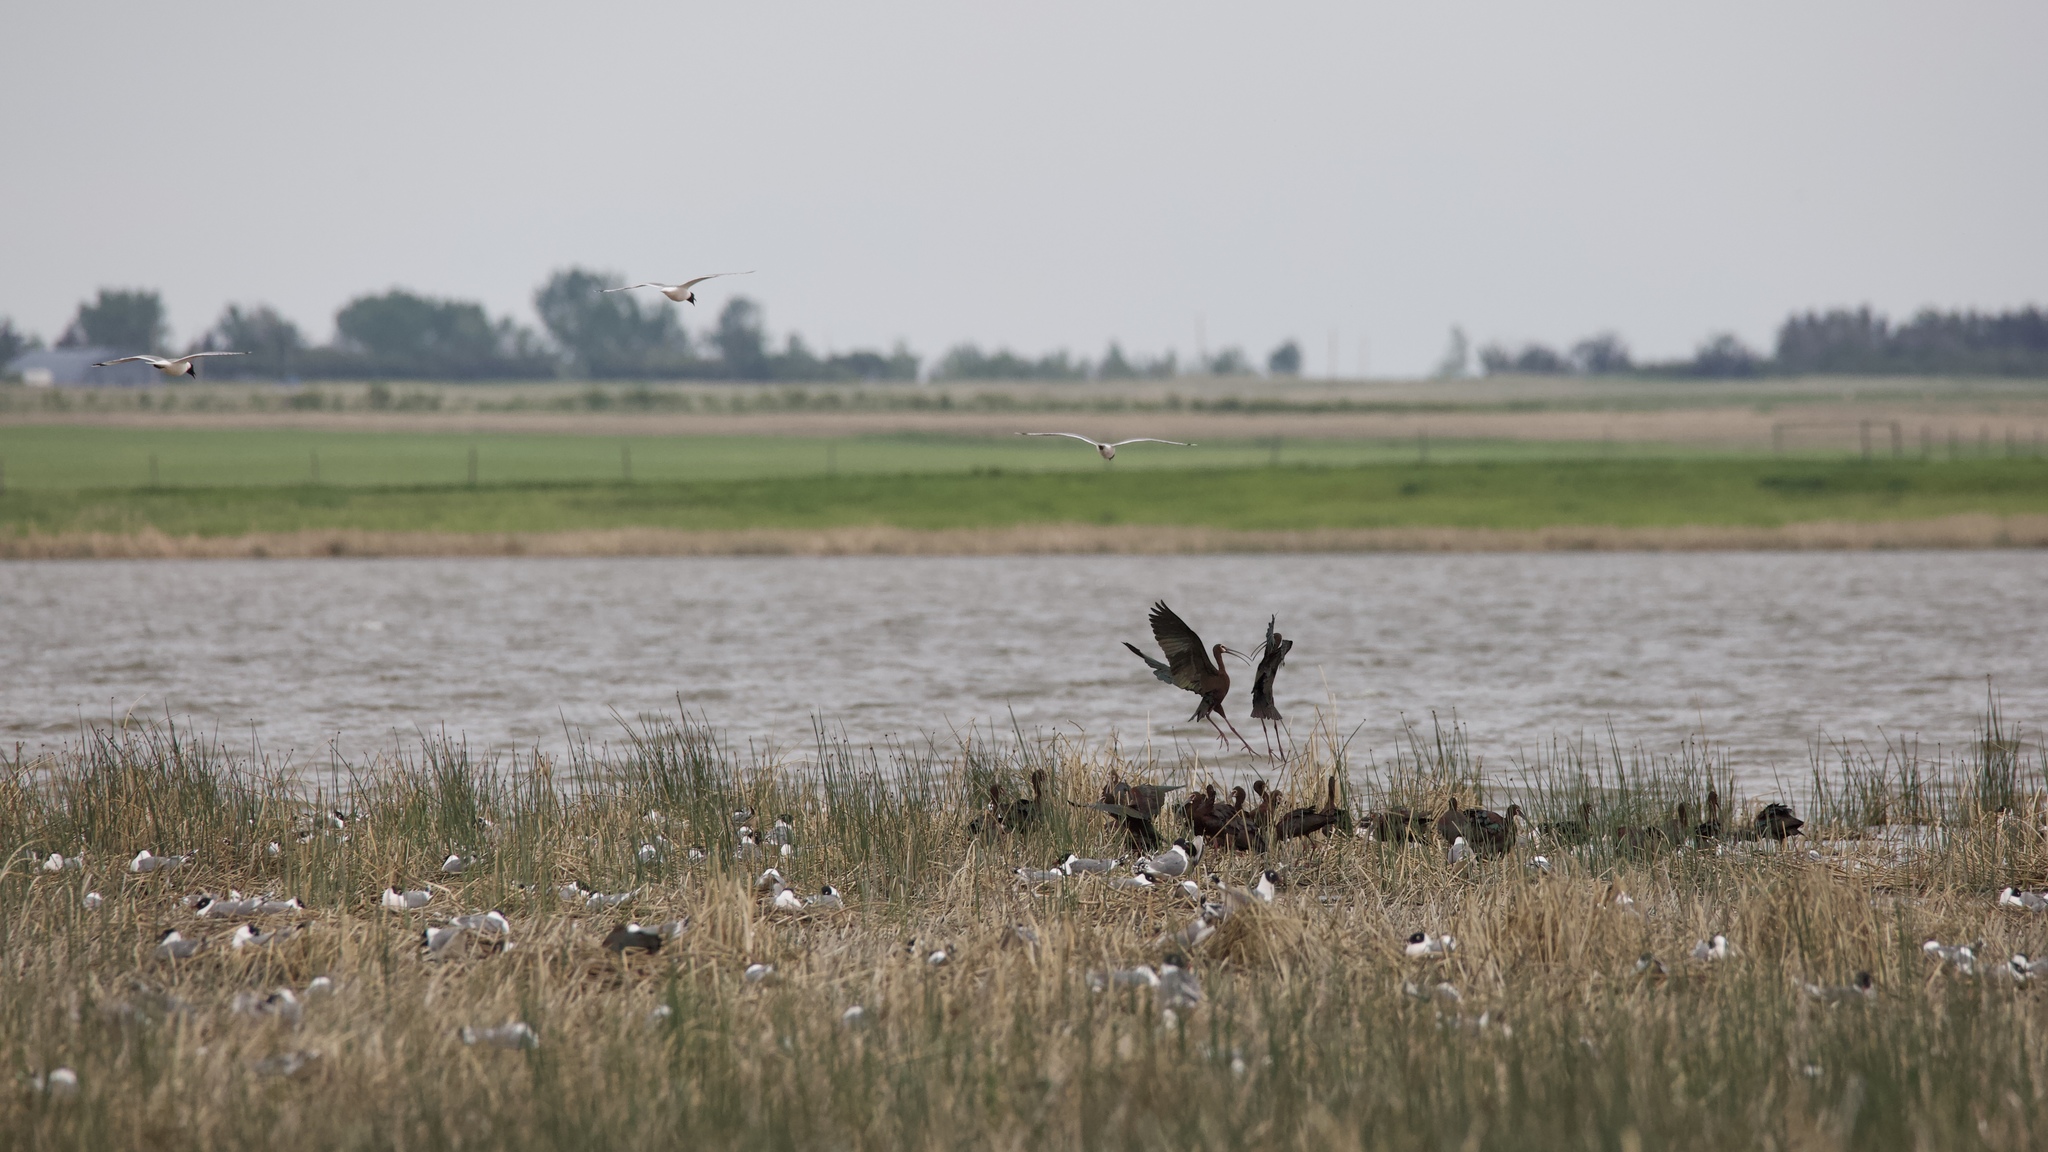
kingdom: Animalia
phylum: Chordata
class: Aves
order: Pelecaniformes
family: Threskiornithidae
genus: Plegadis
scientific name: Plegadis chihi
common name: White-faced ibis
